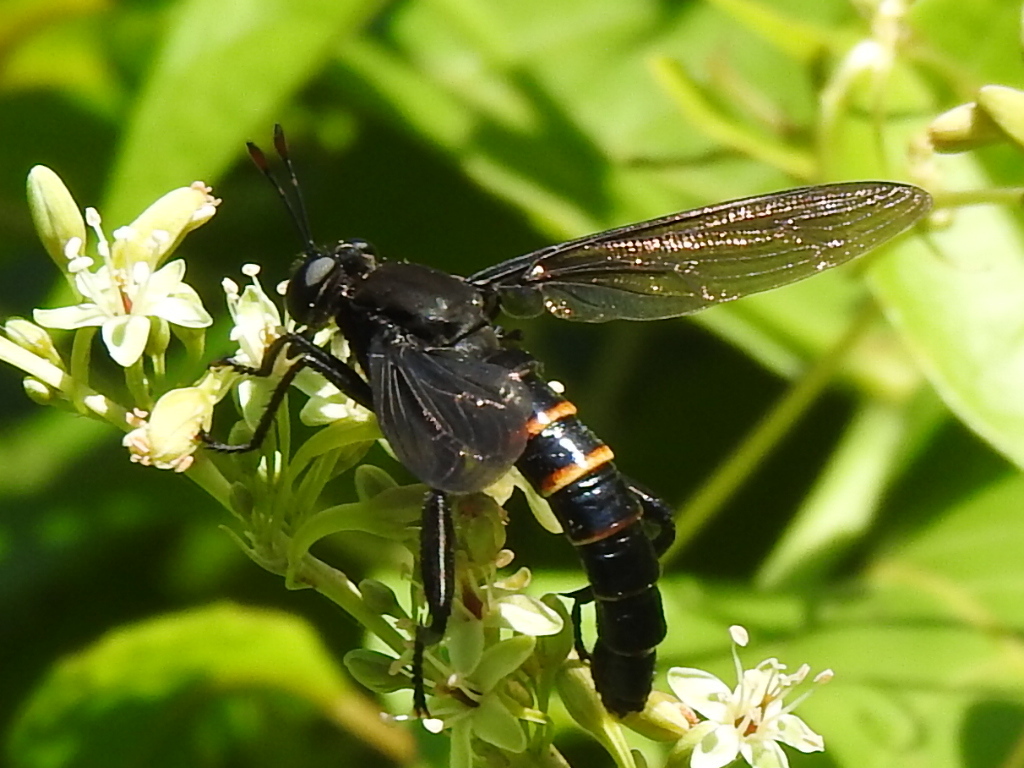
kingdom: Animalia
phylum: Arthropoda
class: Insecta
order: Diptera
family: Mydidae
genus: Mydas
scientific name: Mydas fulvifrons
